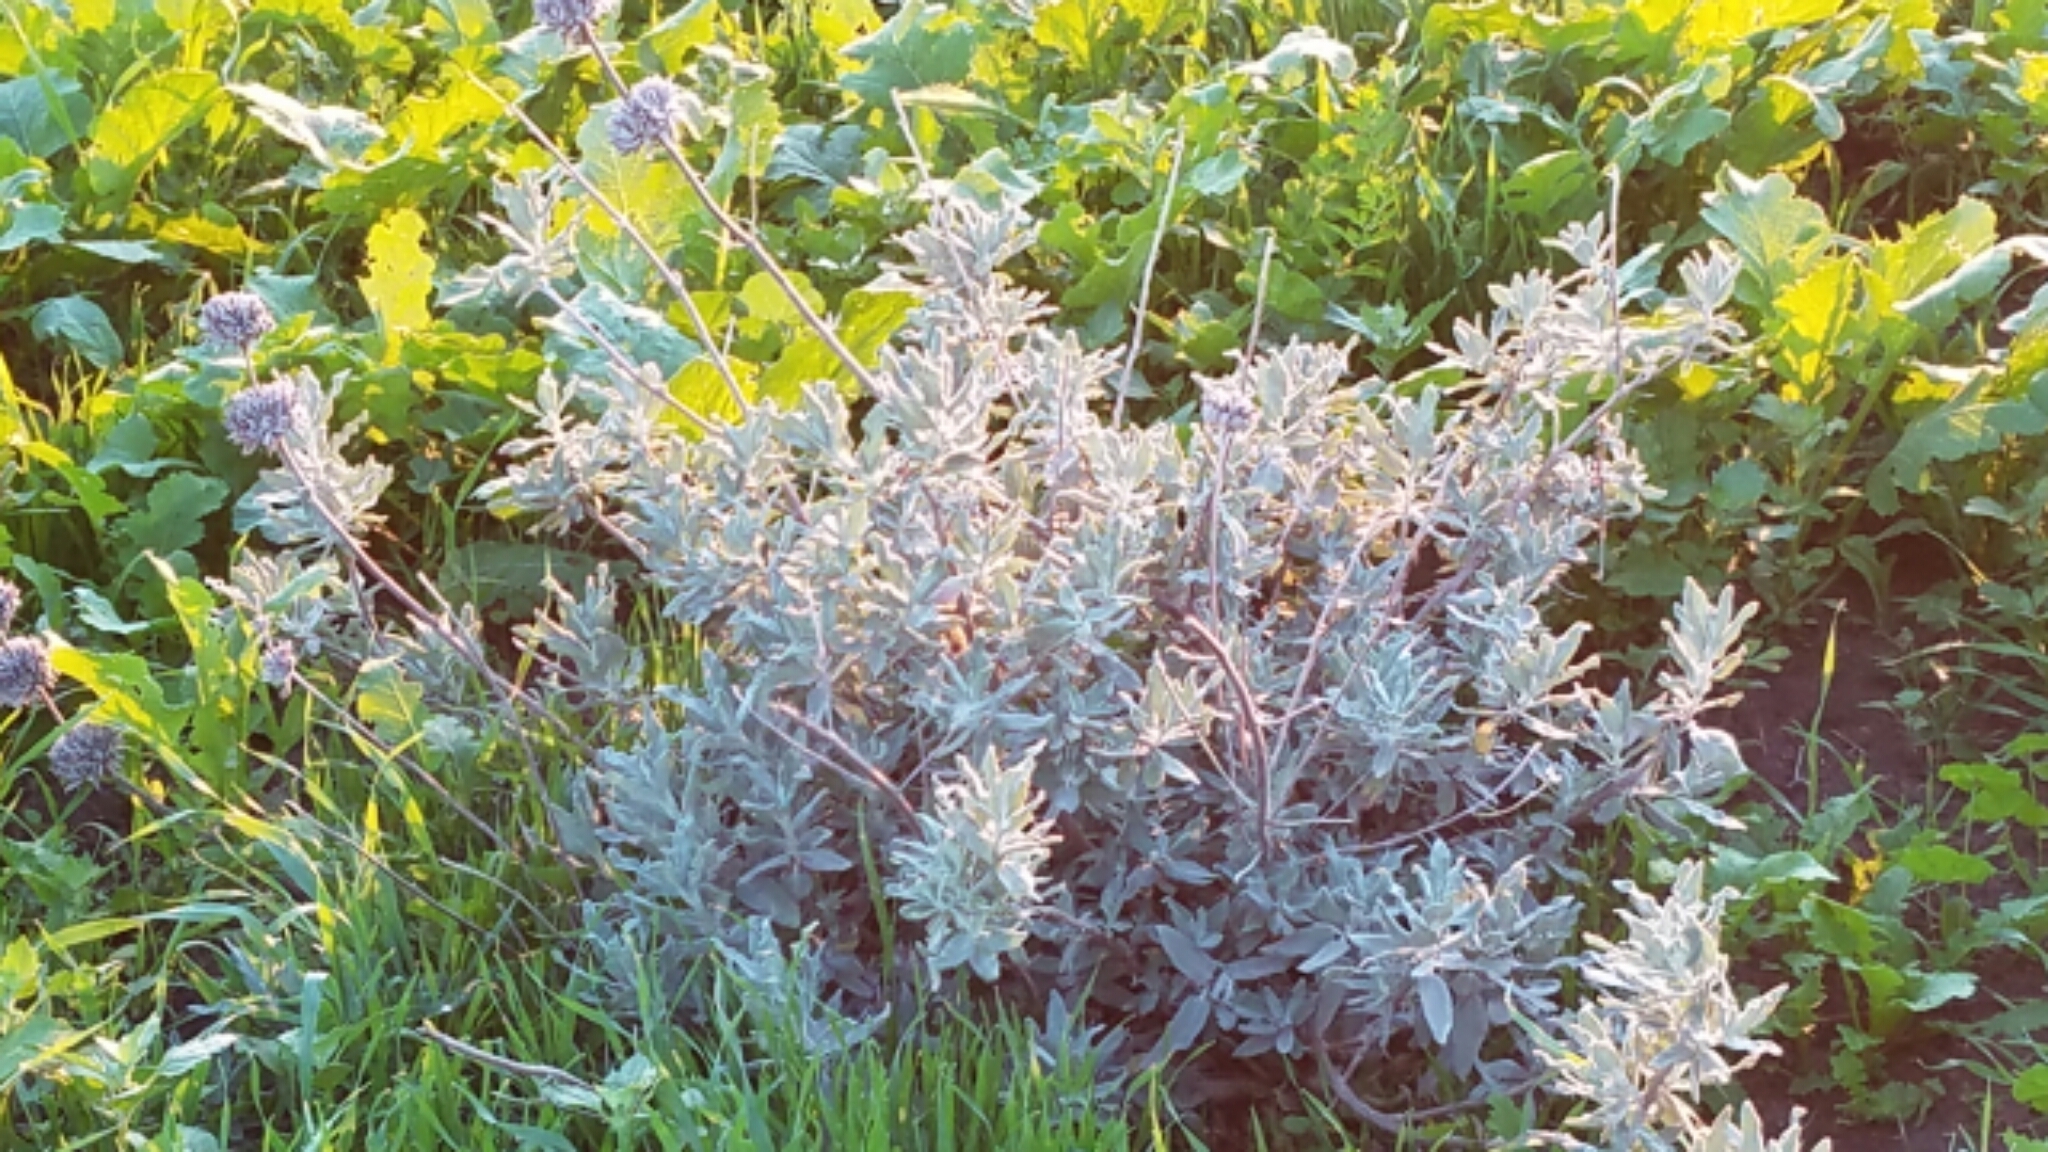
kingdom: Plantae
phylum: Tracheophyta
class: Magnoliopsida
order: Lamiales
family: Lamiaceae
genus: Salvia
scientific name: Salvia leucophylla
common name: Purple sage
